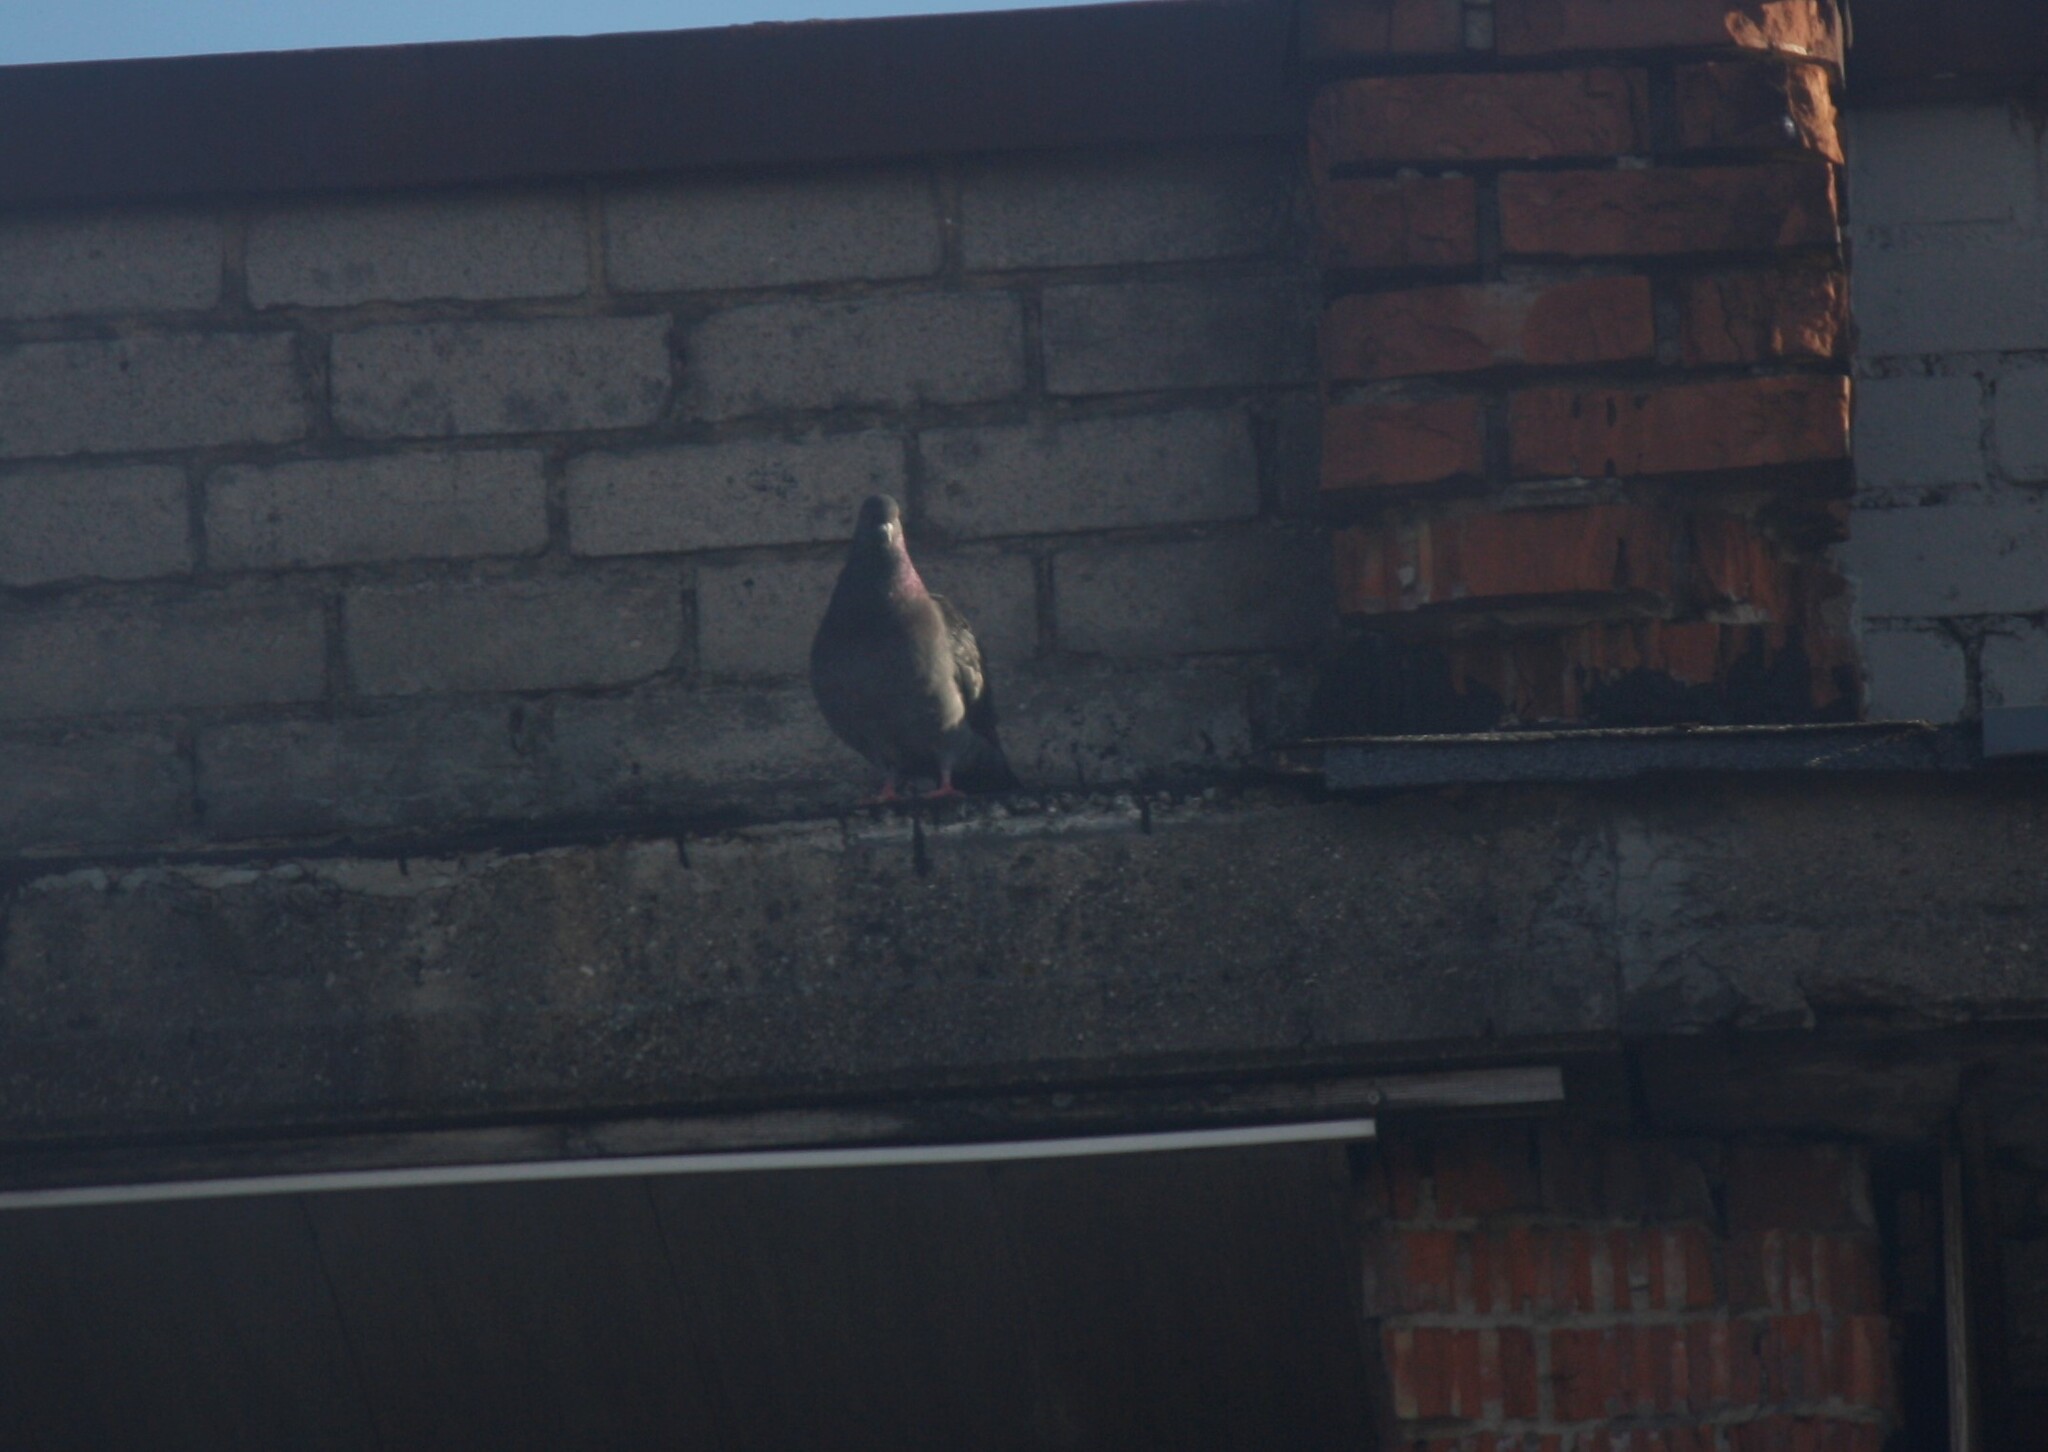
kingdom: Animalia
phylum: Chordata
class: Aves
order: Columbiformes
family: Columbidae
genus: Columba
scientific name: Columba livia
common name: Rock pigeon
